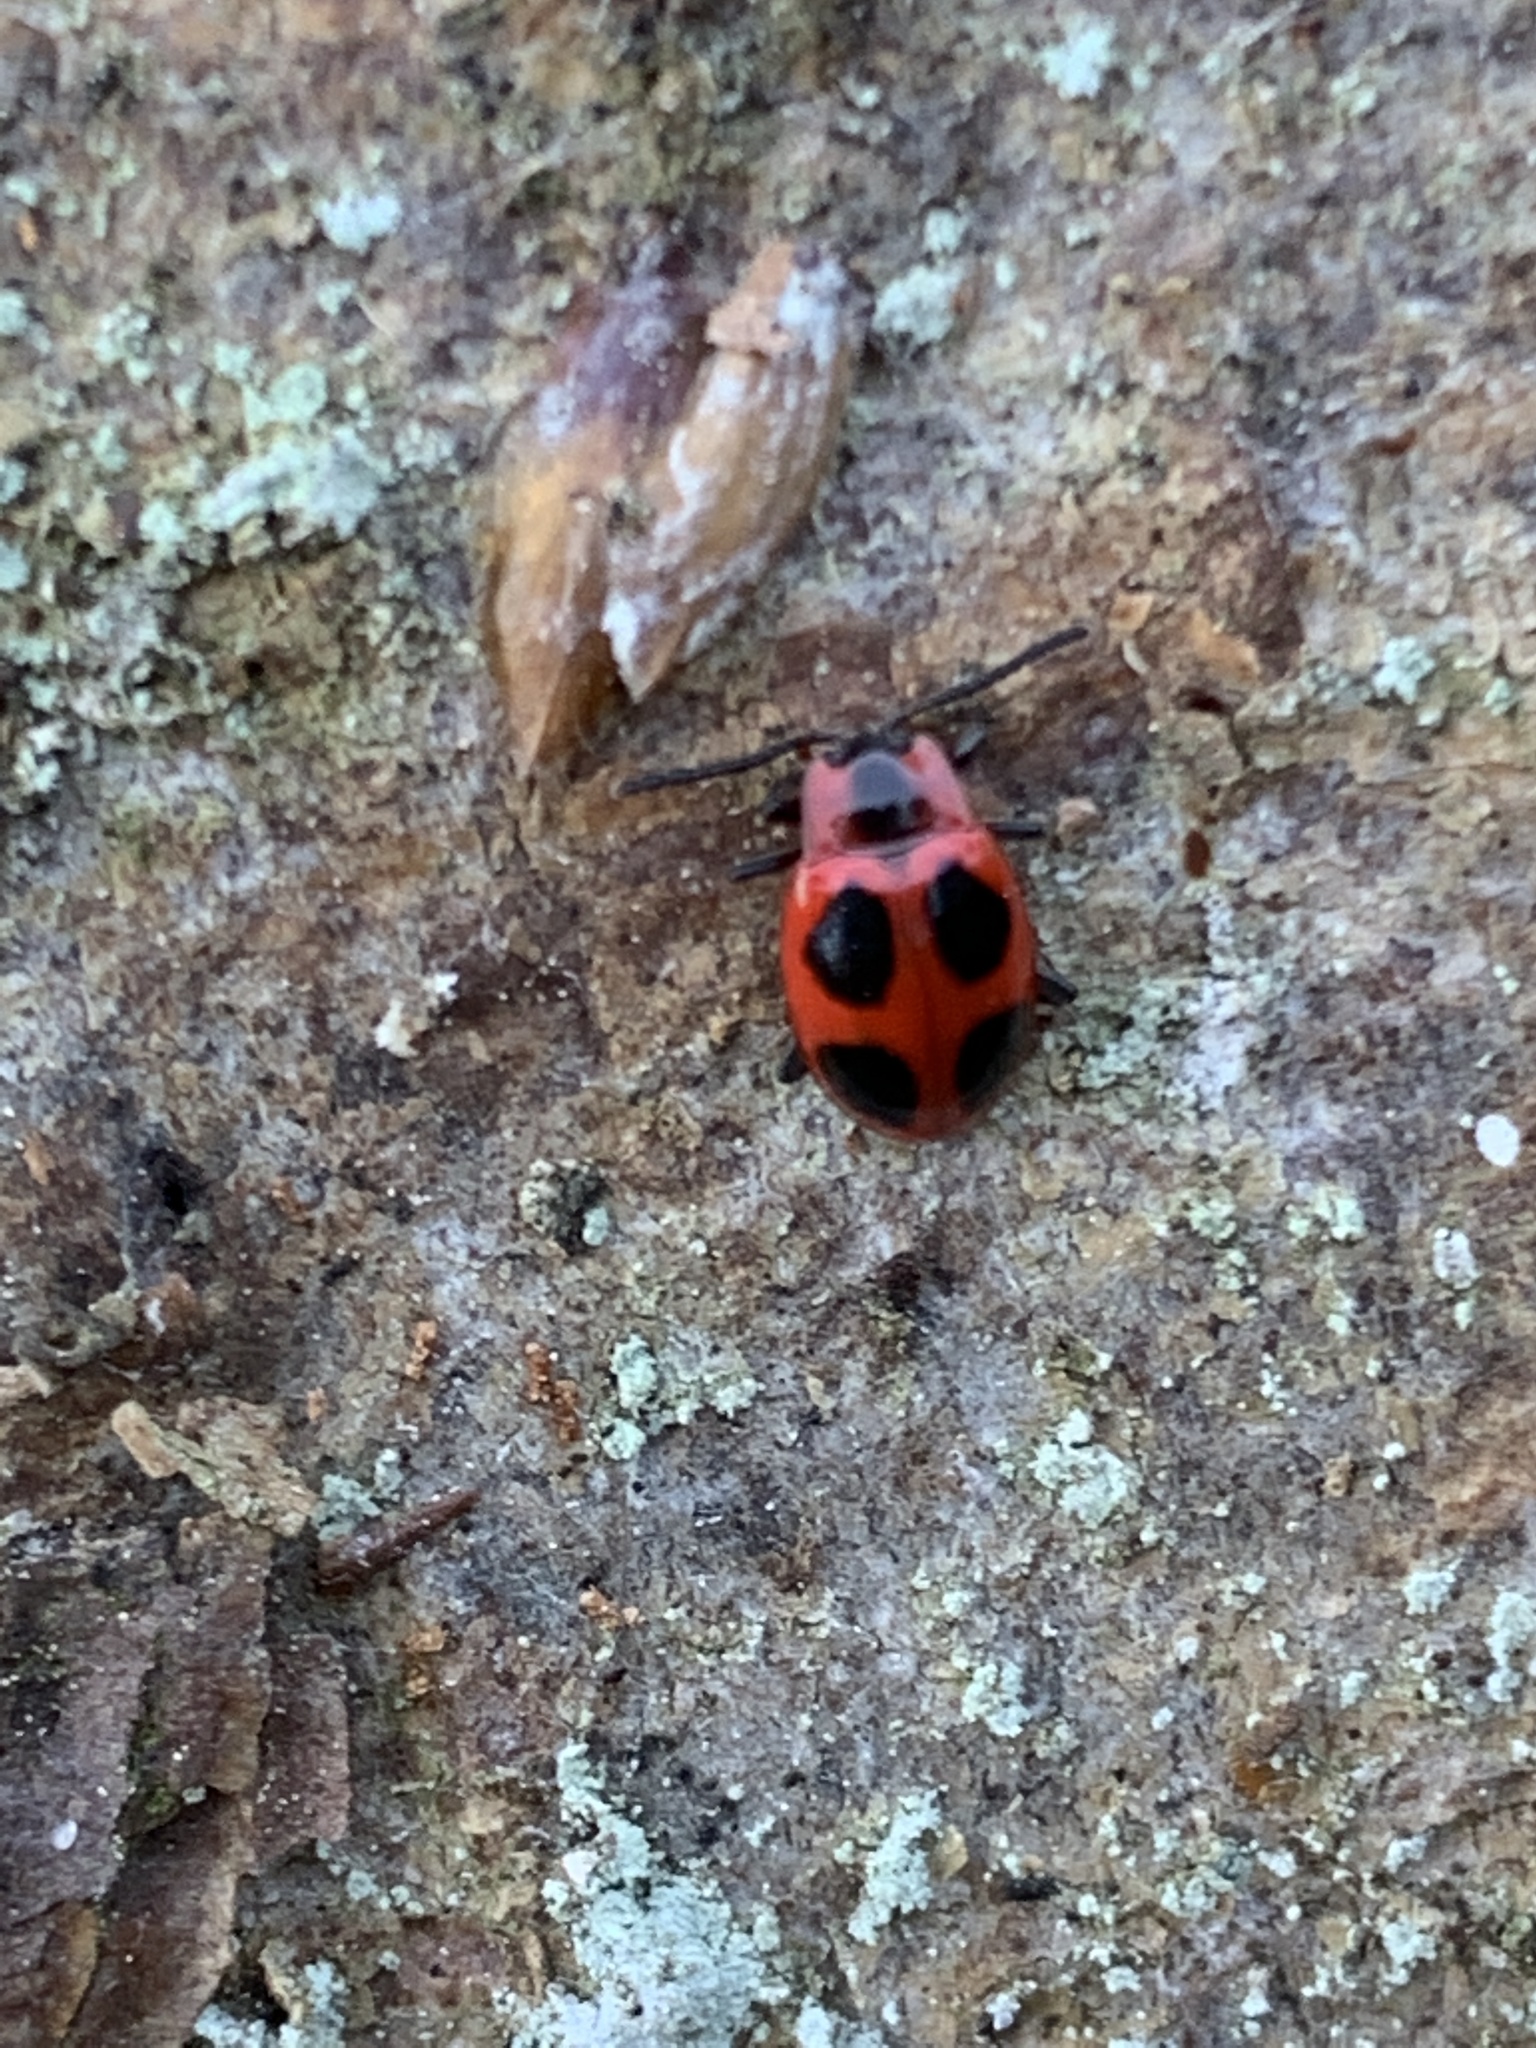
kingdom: Animalia
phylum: Arthropoda
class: Insecta
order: Coleoptera
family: Endomychidae
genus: Endomychus
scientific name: Endomychus coccineus
